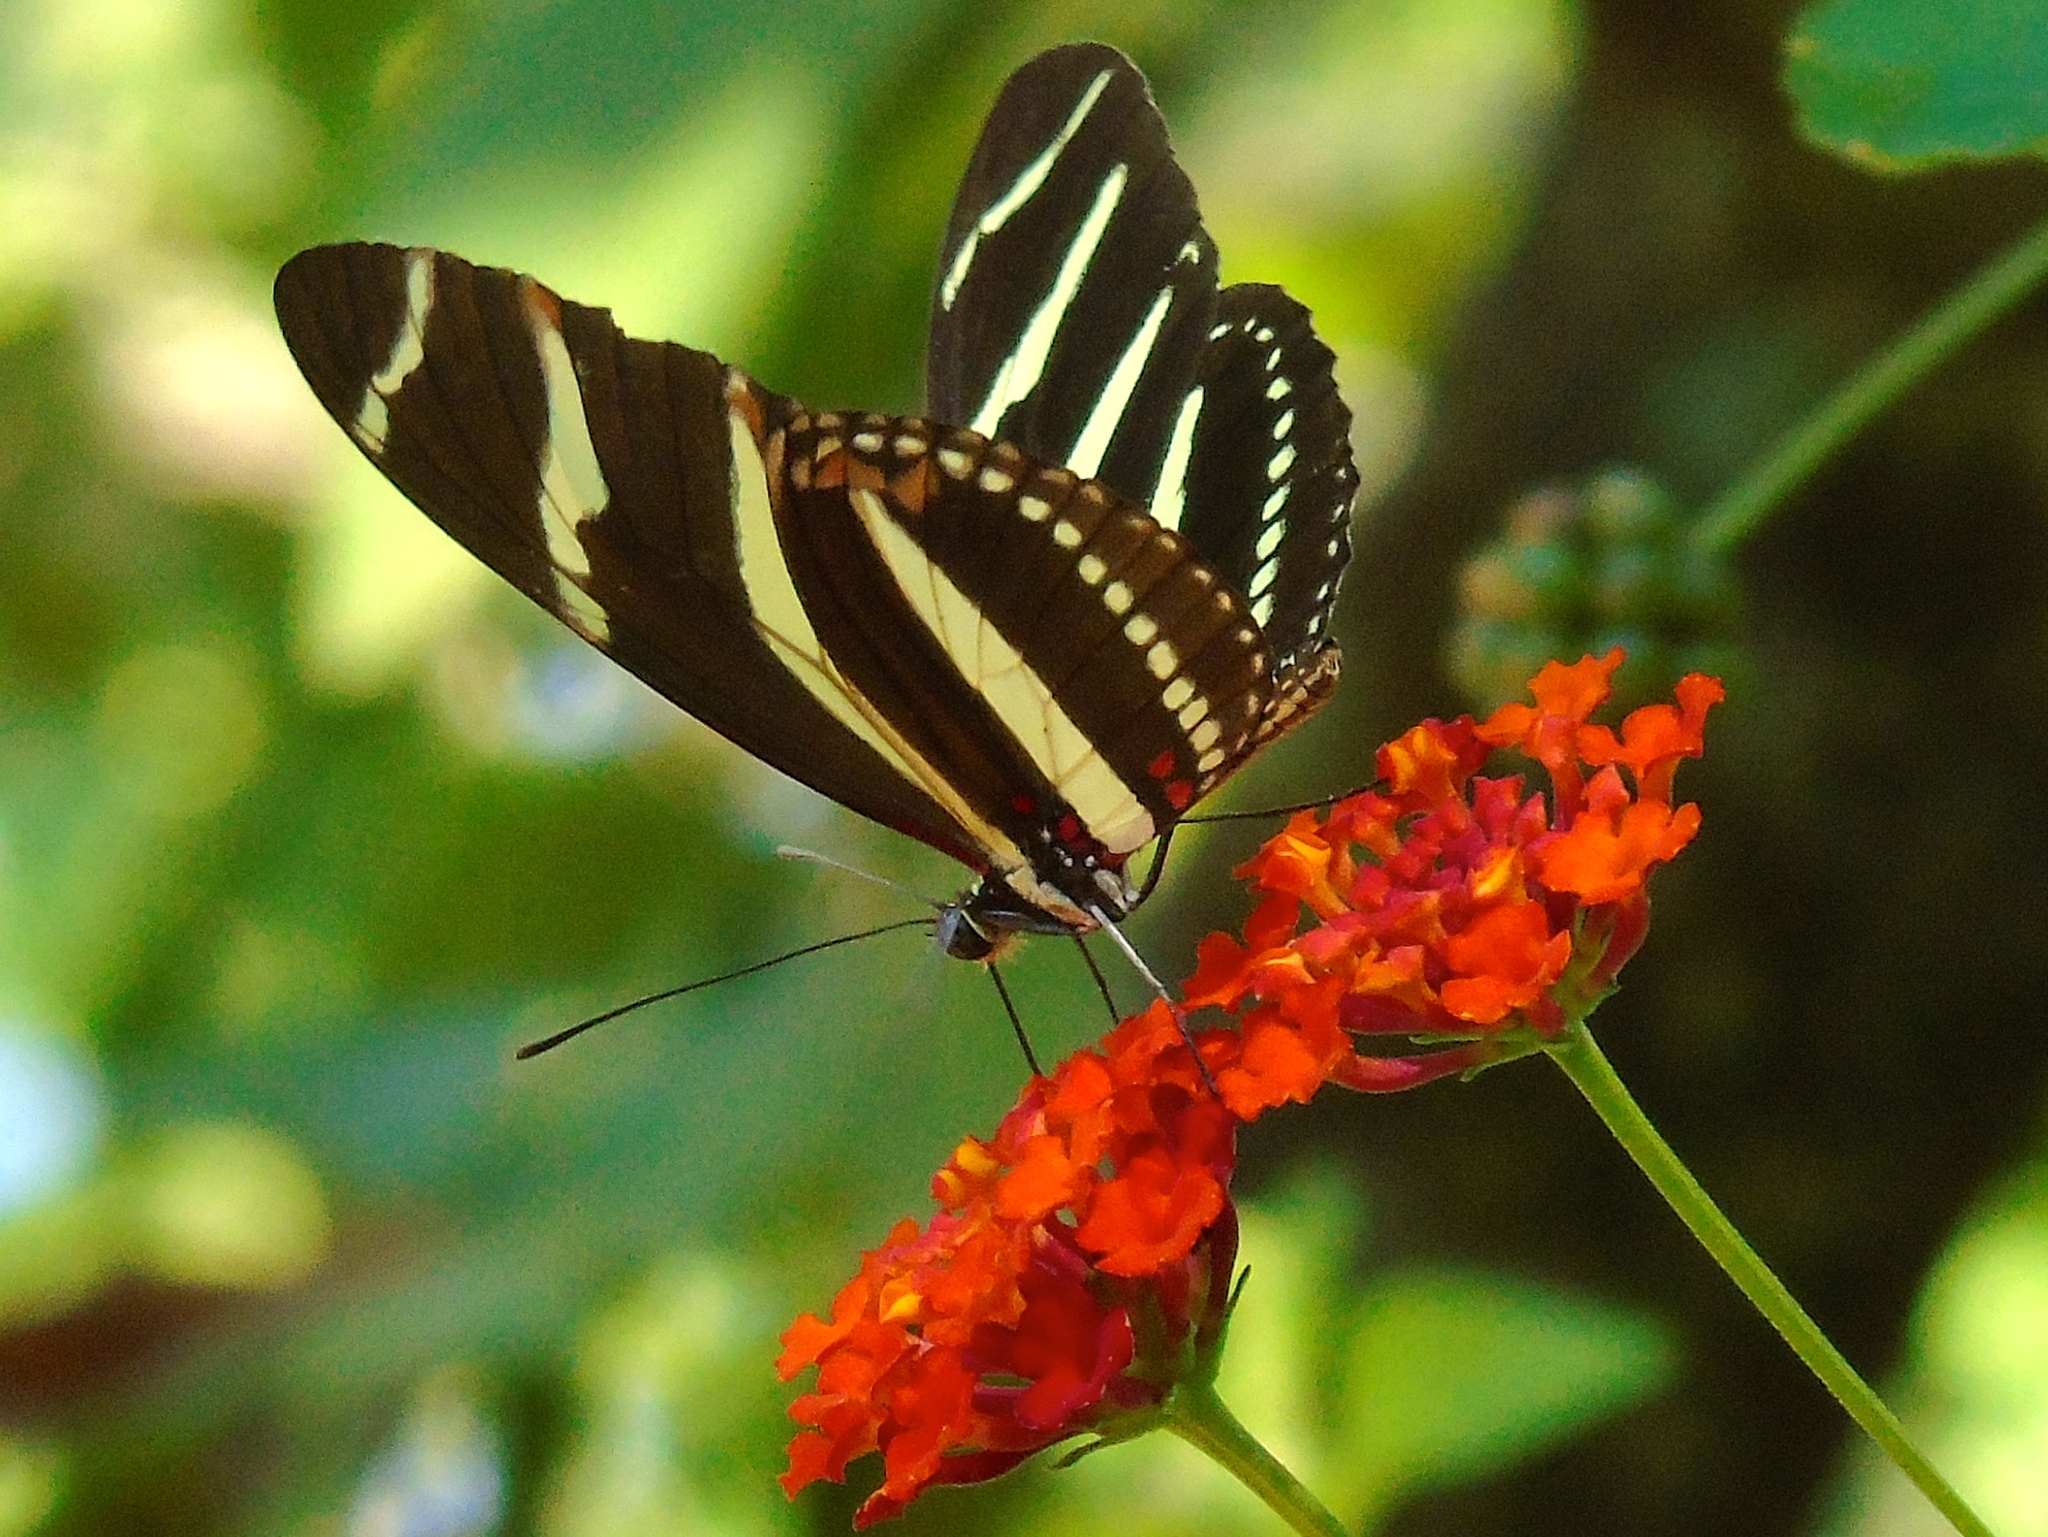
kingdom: Animalia
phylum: Arthropoda
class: Insecta
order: Lepidoptera
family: Nymphalidae
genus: Heliconius
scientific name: Heliconius charithonia
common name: Zebra long wing
